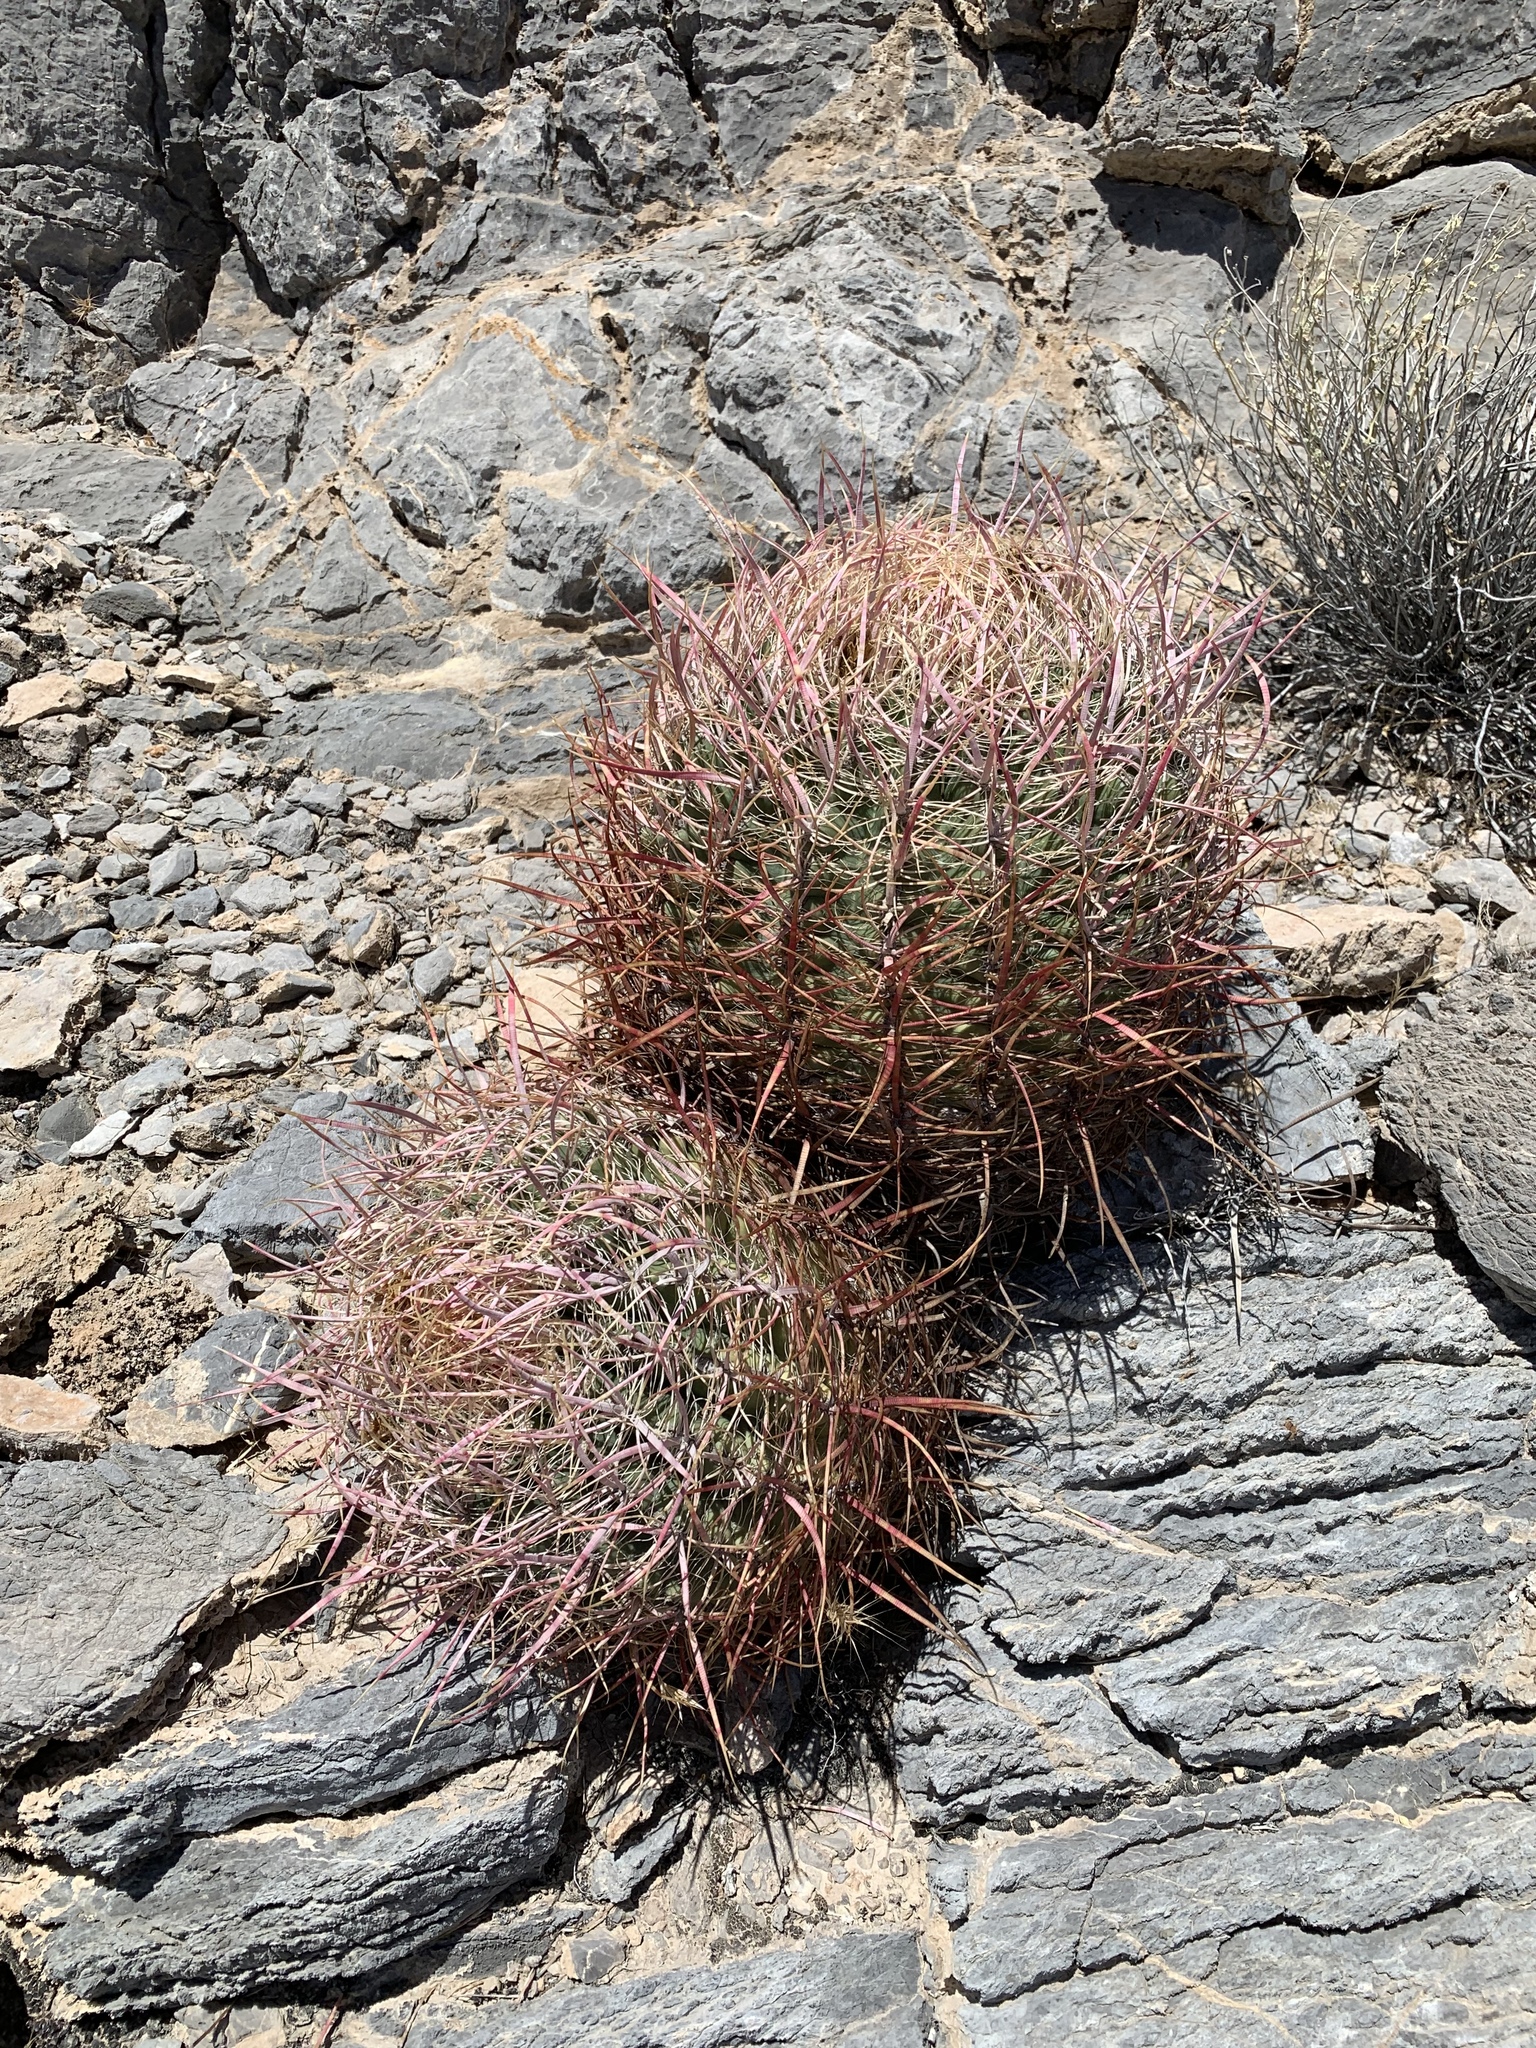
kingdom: Plantae
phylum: Tracheophyta
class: Magnoliopsida
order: Caryophyllales
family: Cactaceae
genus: Ferocactus
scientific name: Ferocactus cylindraceus
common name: California barrel cactus
